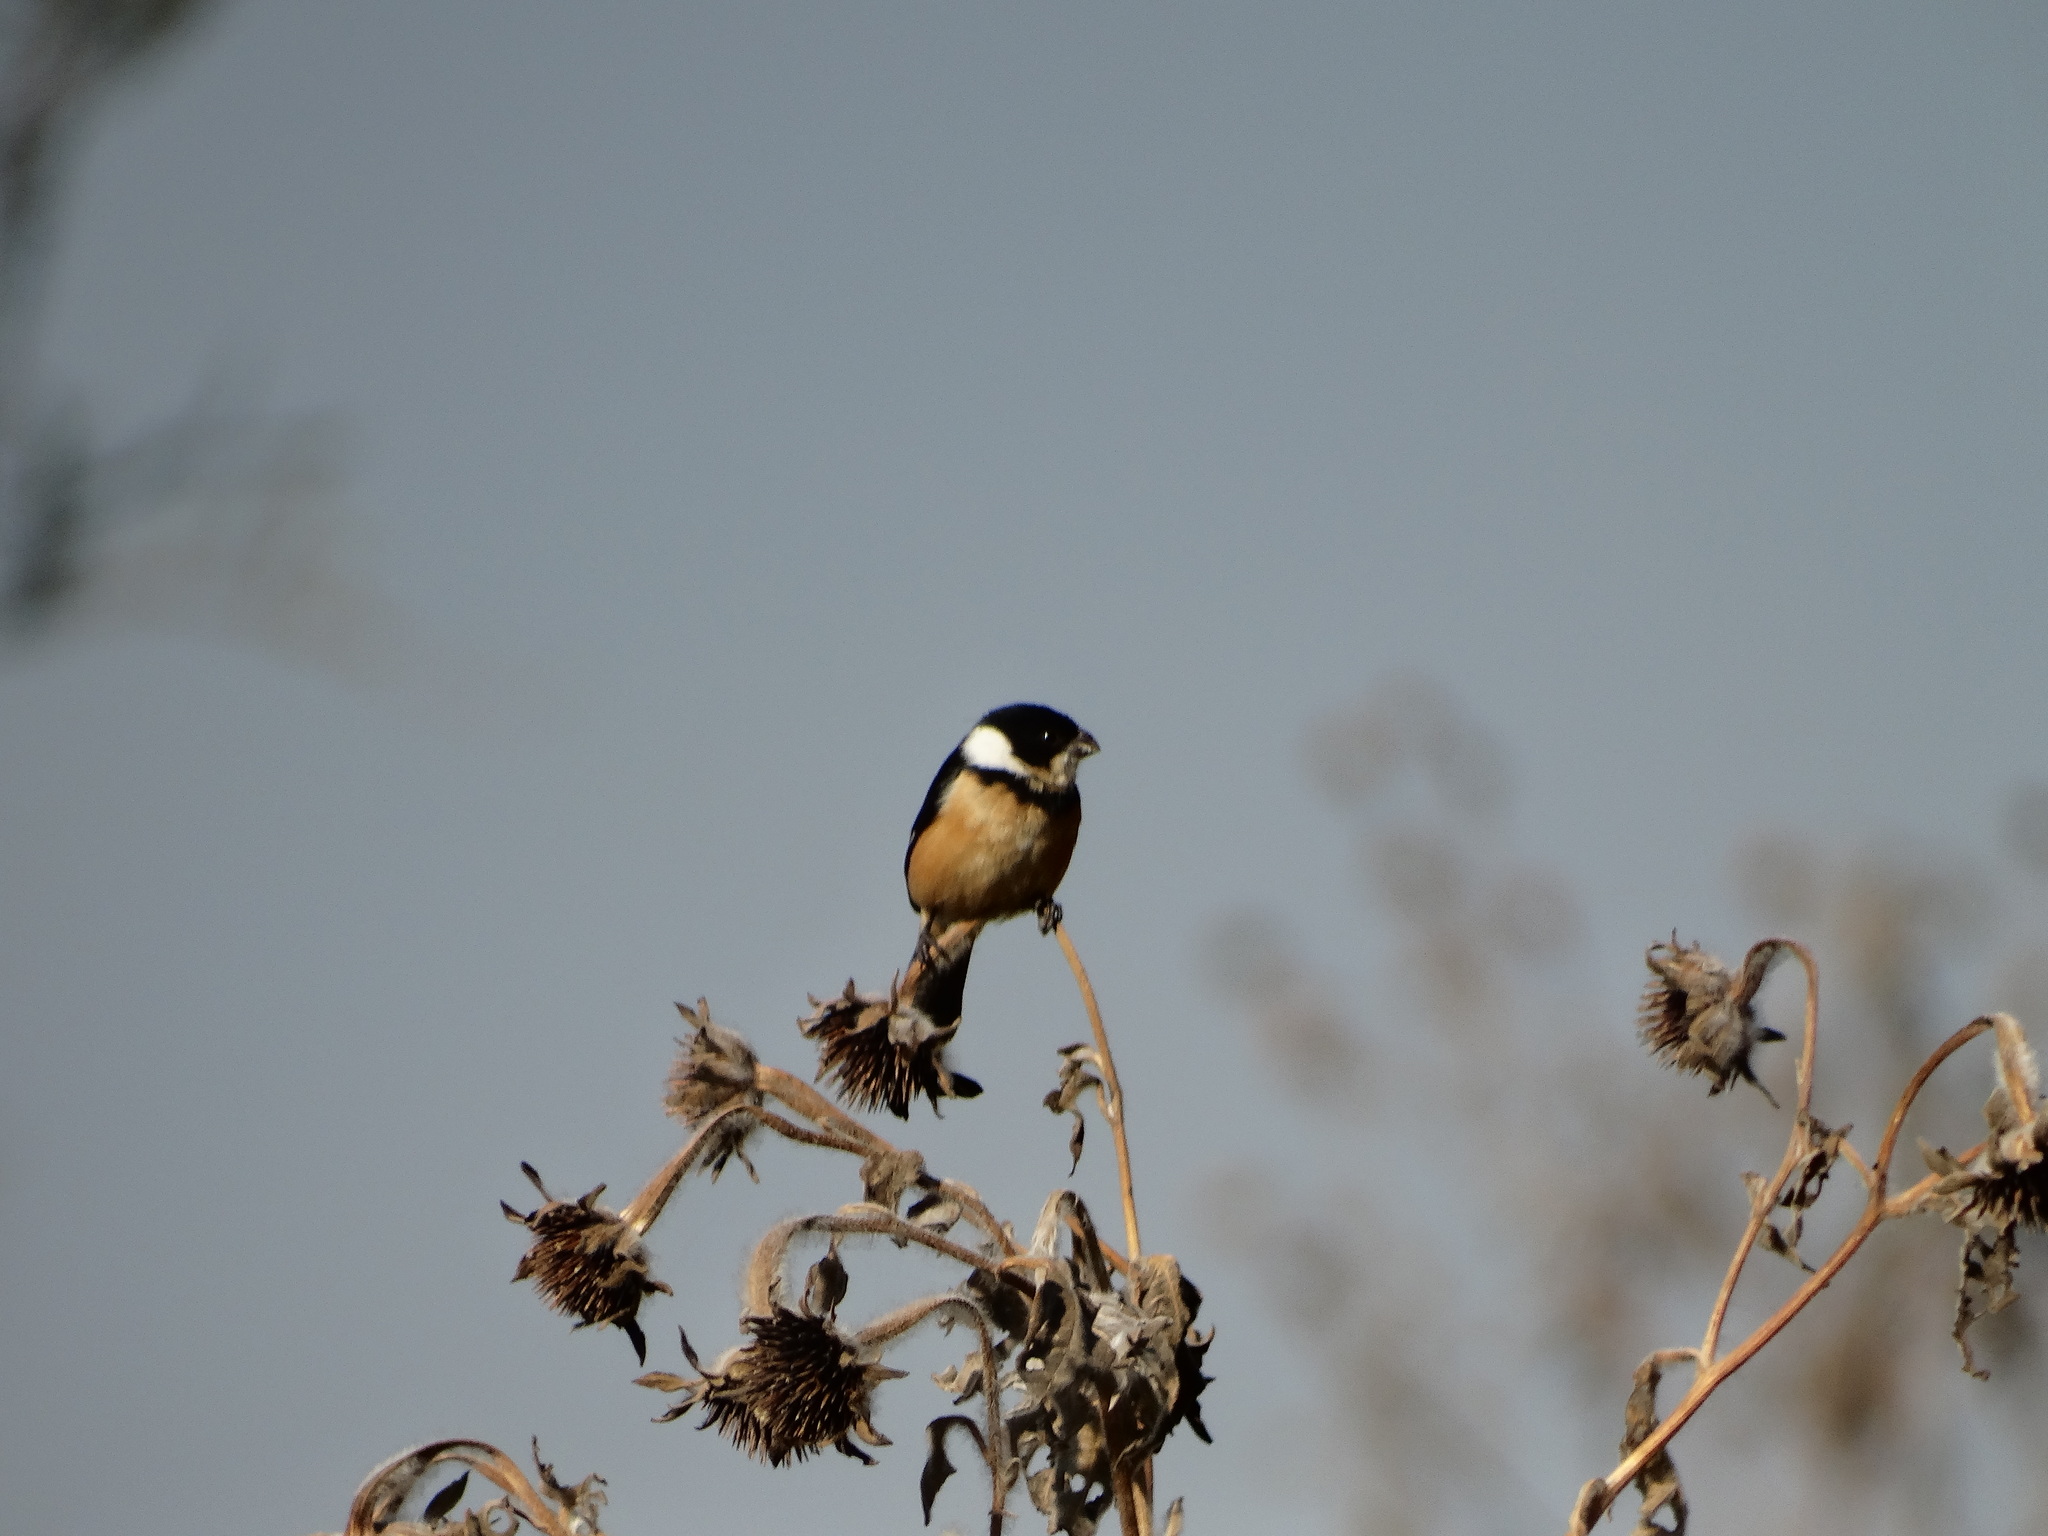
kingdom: Animalia
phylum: Chordata
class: Aves
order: Passeriformes
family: Thraupidae
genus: Sporophila
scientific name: Sporophila torqueola
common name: White-collared seedeater
